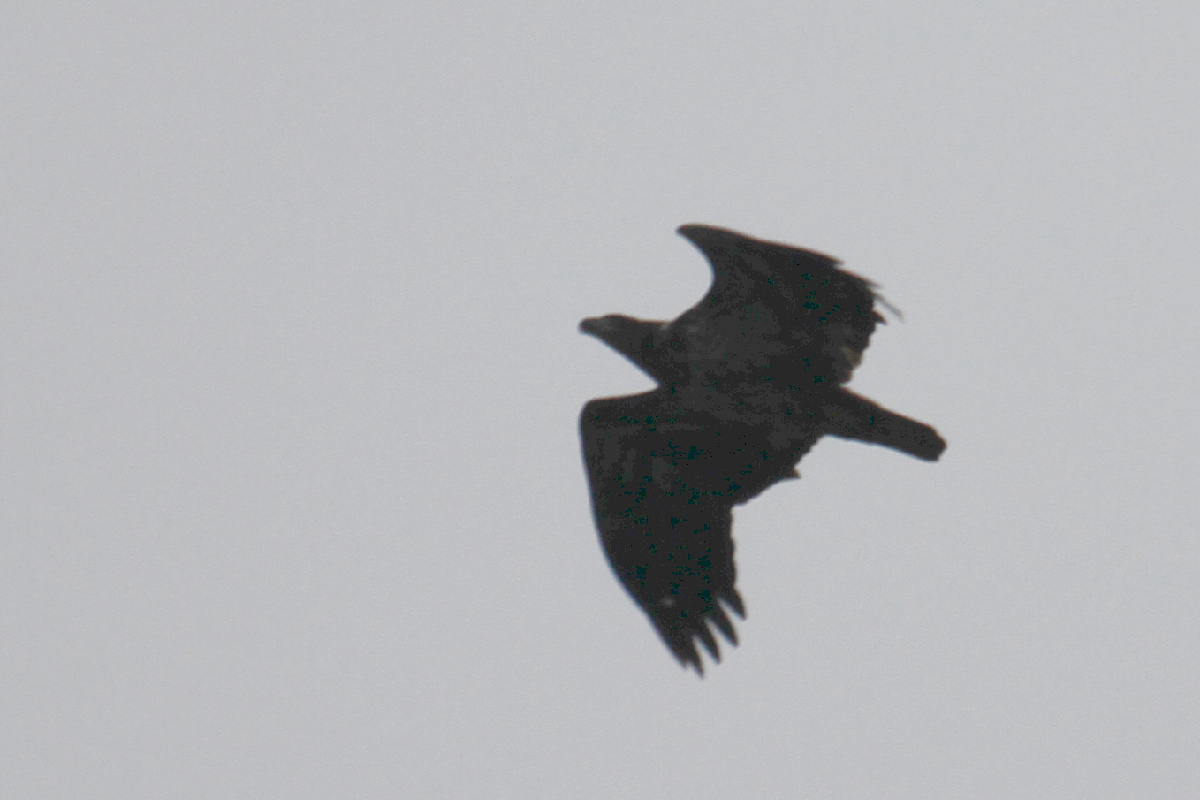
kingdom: Animalia
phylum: Chordata
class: Aves
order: Accipitriformes
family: Accipitridae
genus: Haliaeetus
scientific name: Haliaeetus leucocephalus
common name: Bald eagle
